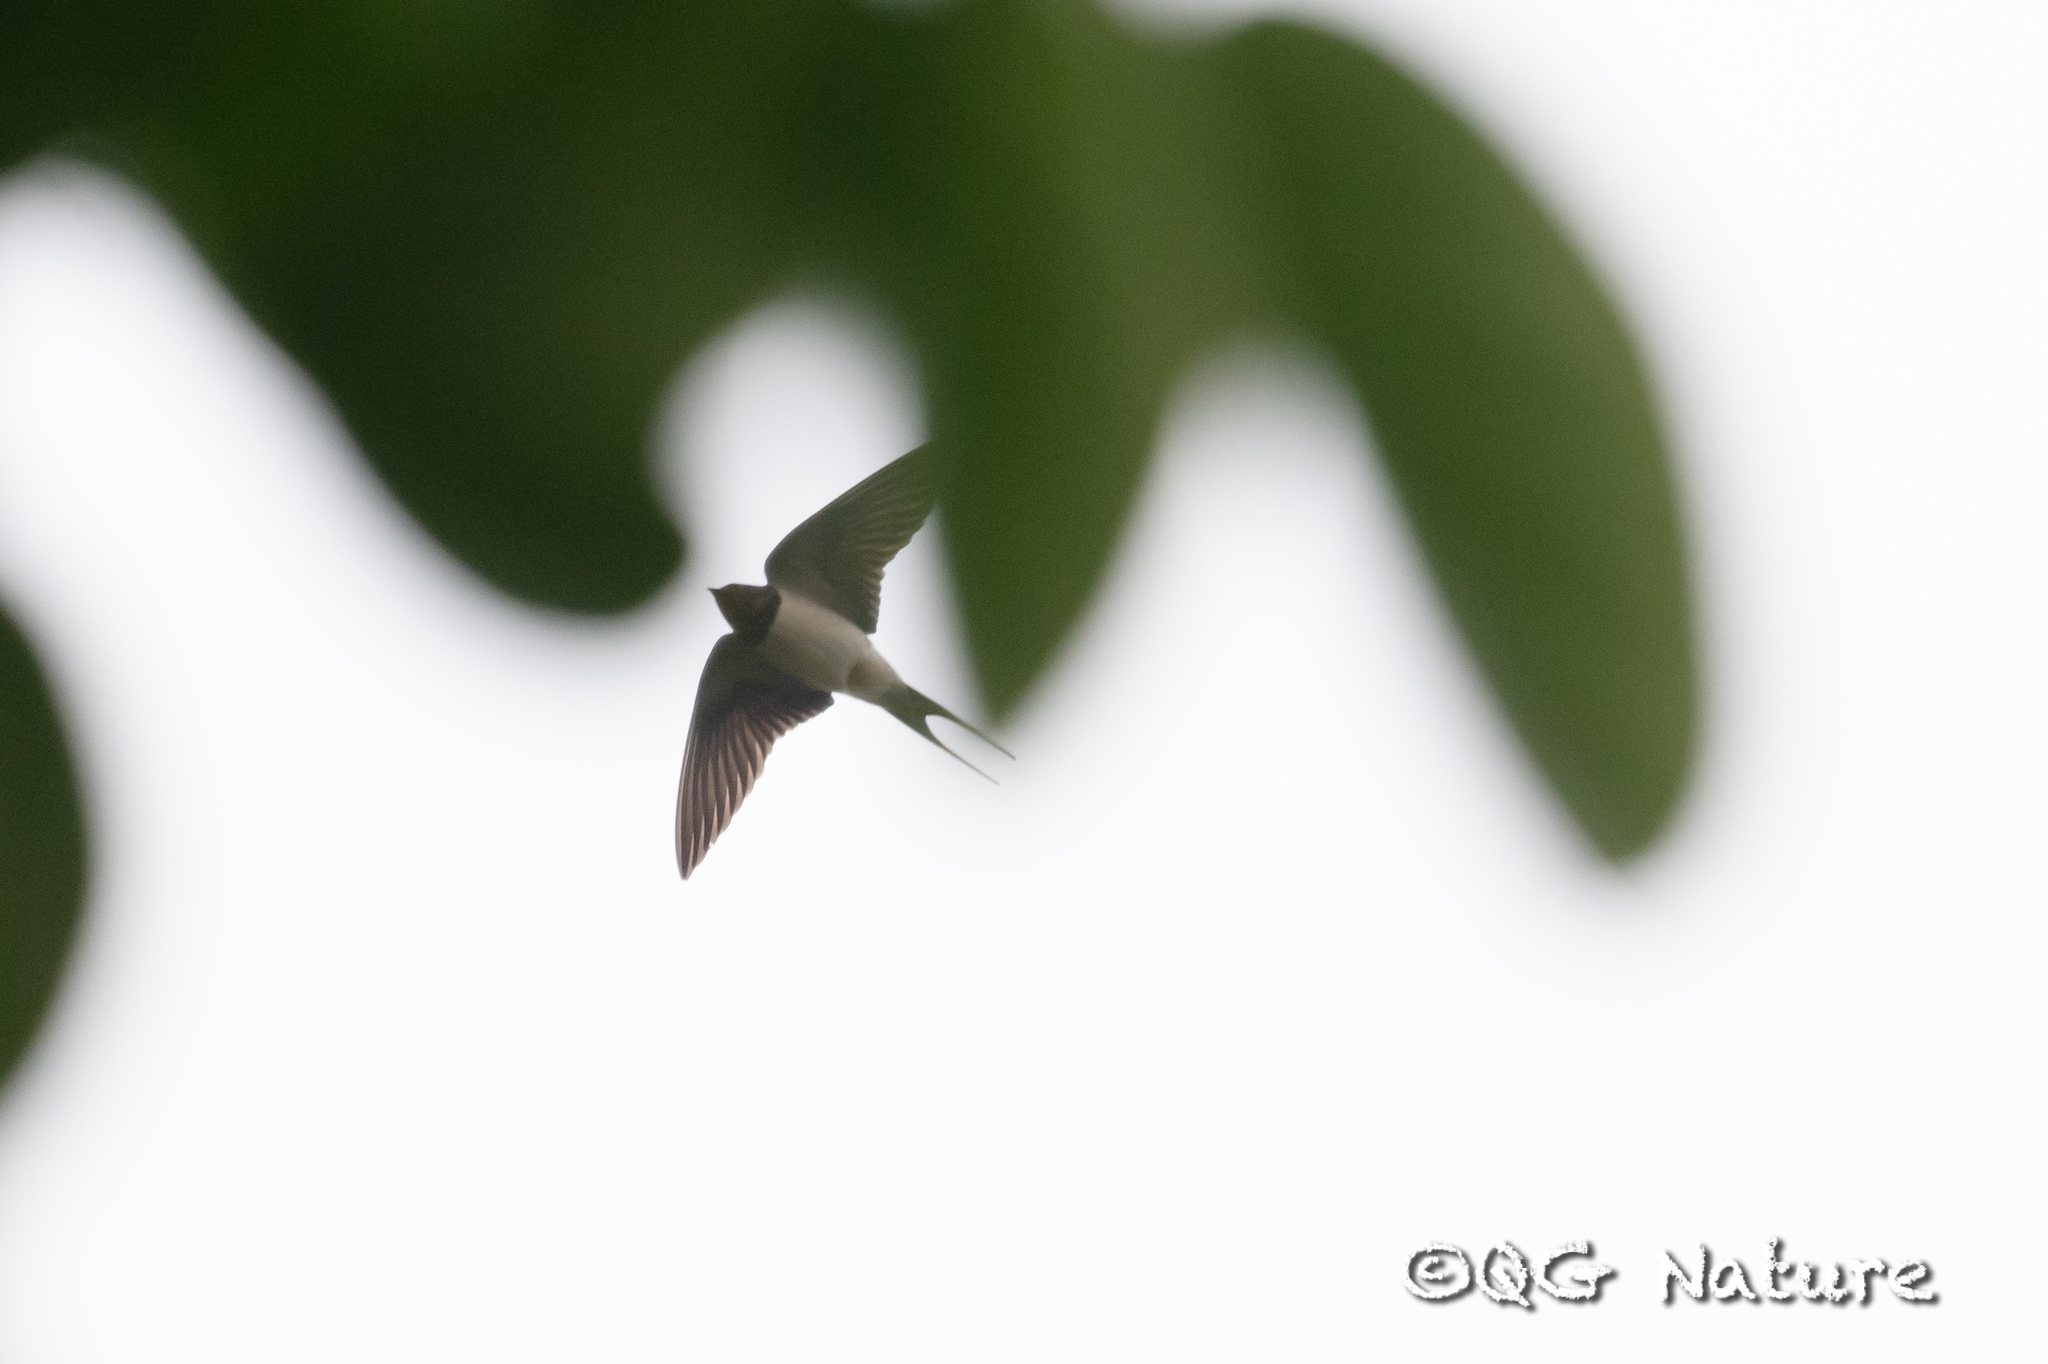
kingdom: Animalia
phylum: Chordata
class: Aves
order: Passeriformes
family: Hirundinidae
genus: Hirundo
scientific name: Hirundo rustica
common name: Barn swallow
